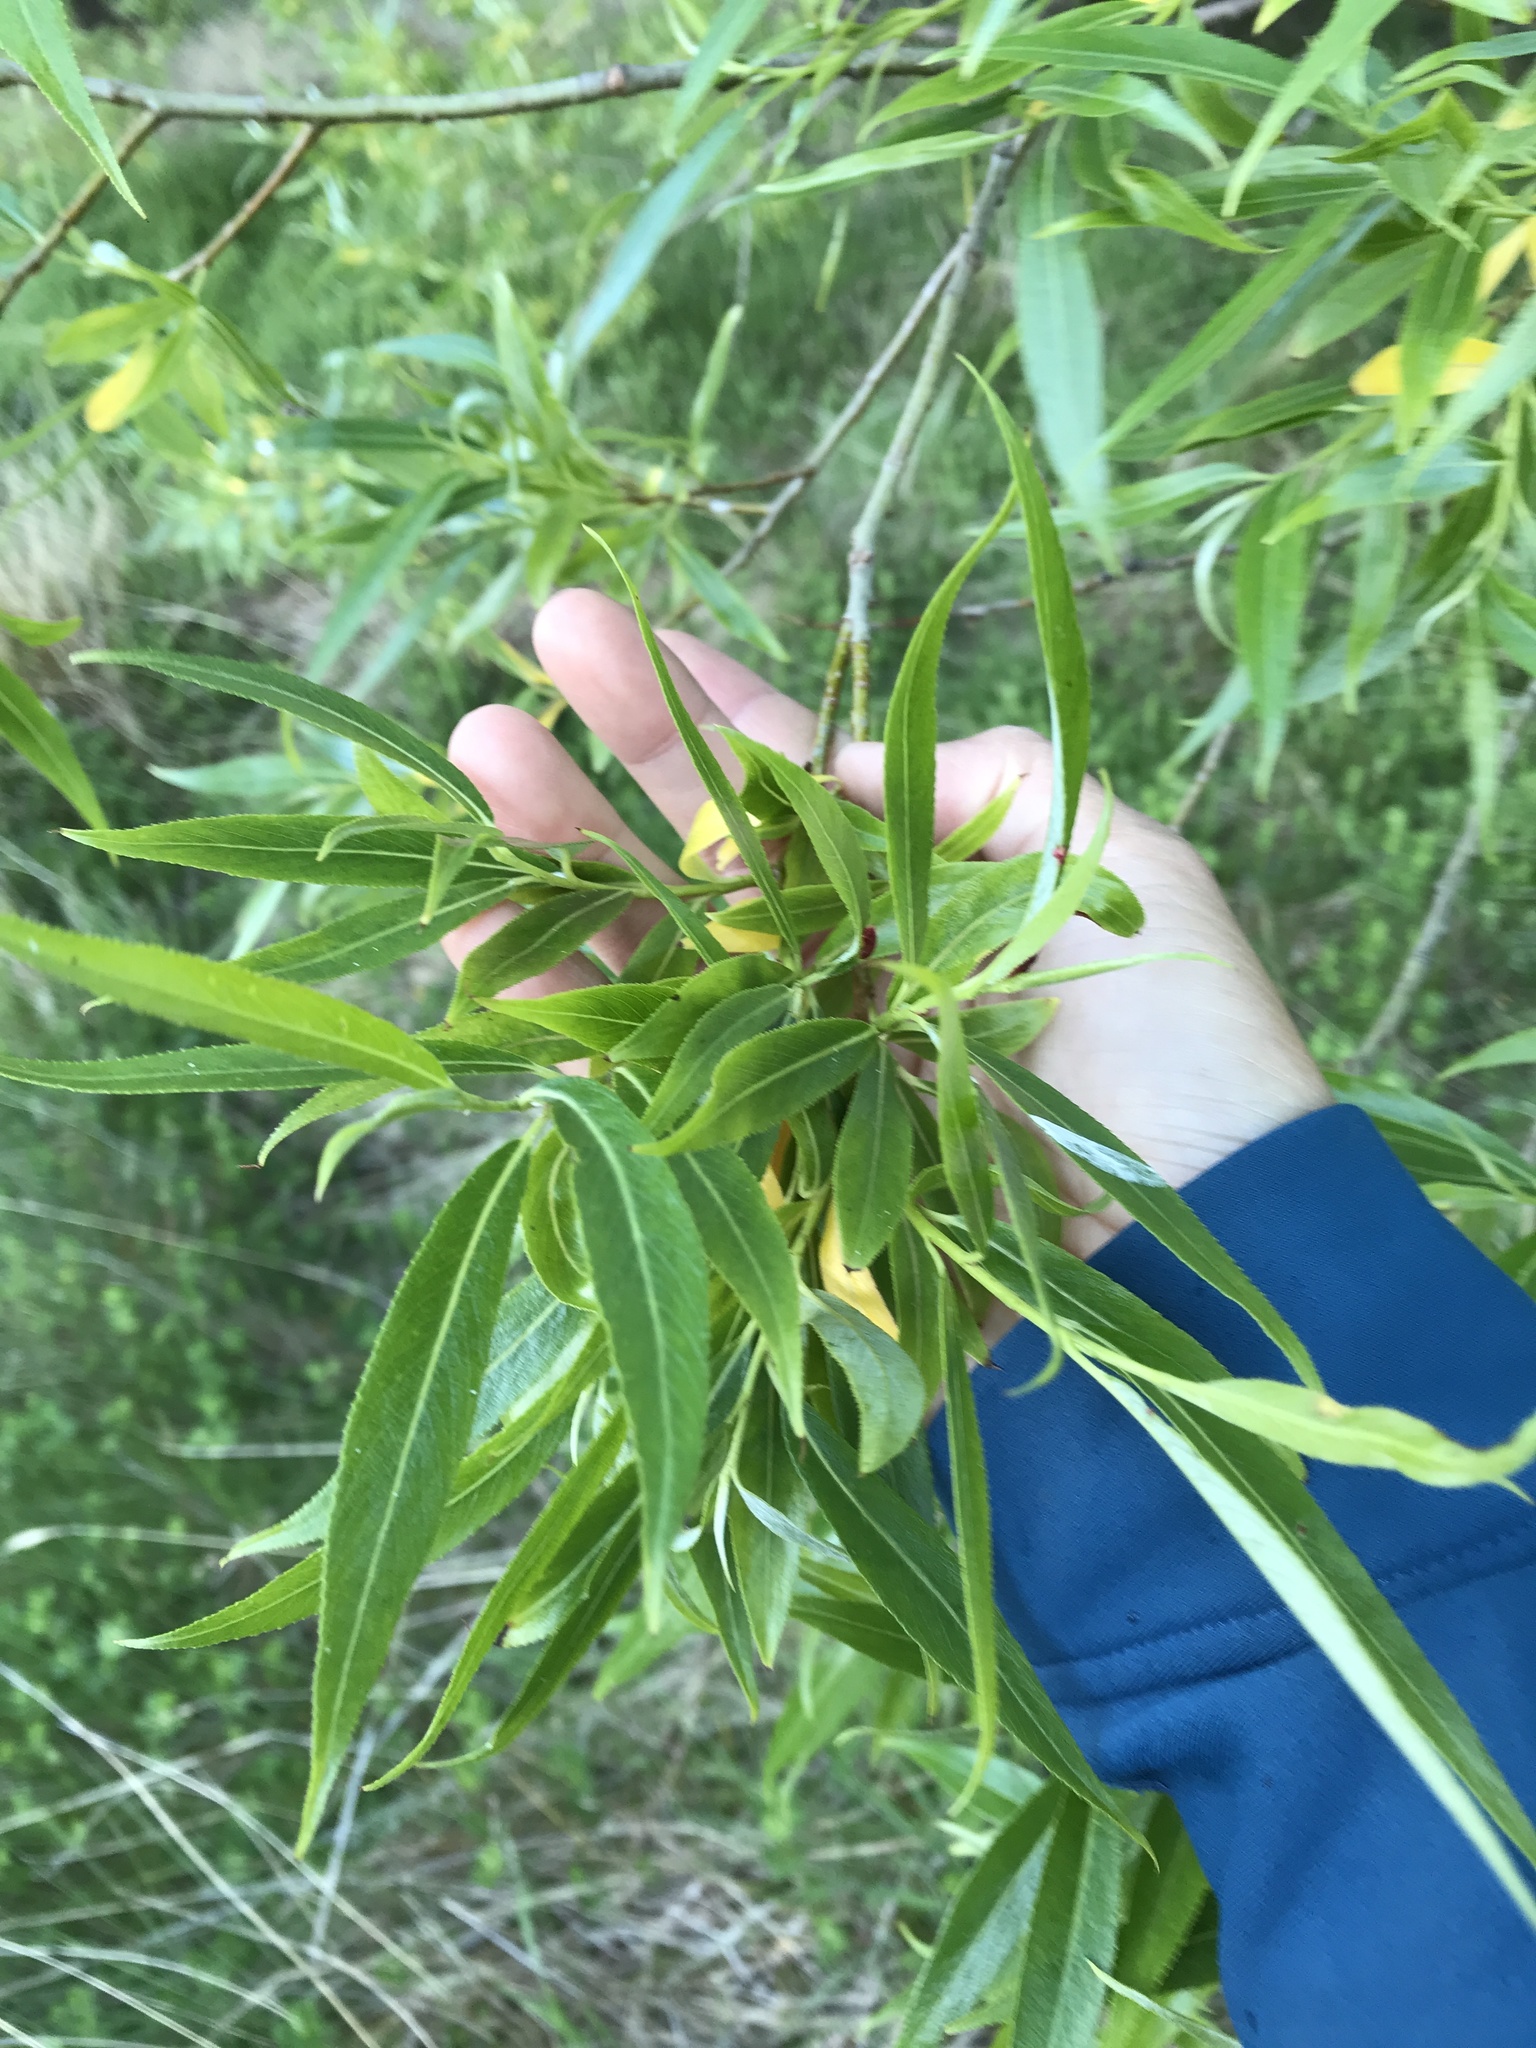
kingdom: Plantae
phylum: Tracheophyta
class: Magnoliopsida
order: Malpighiales
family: Salicaceae
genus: Salix
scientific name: Salix fragilis
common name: Crack willow
